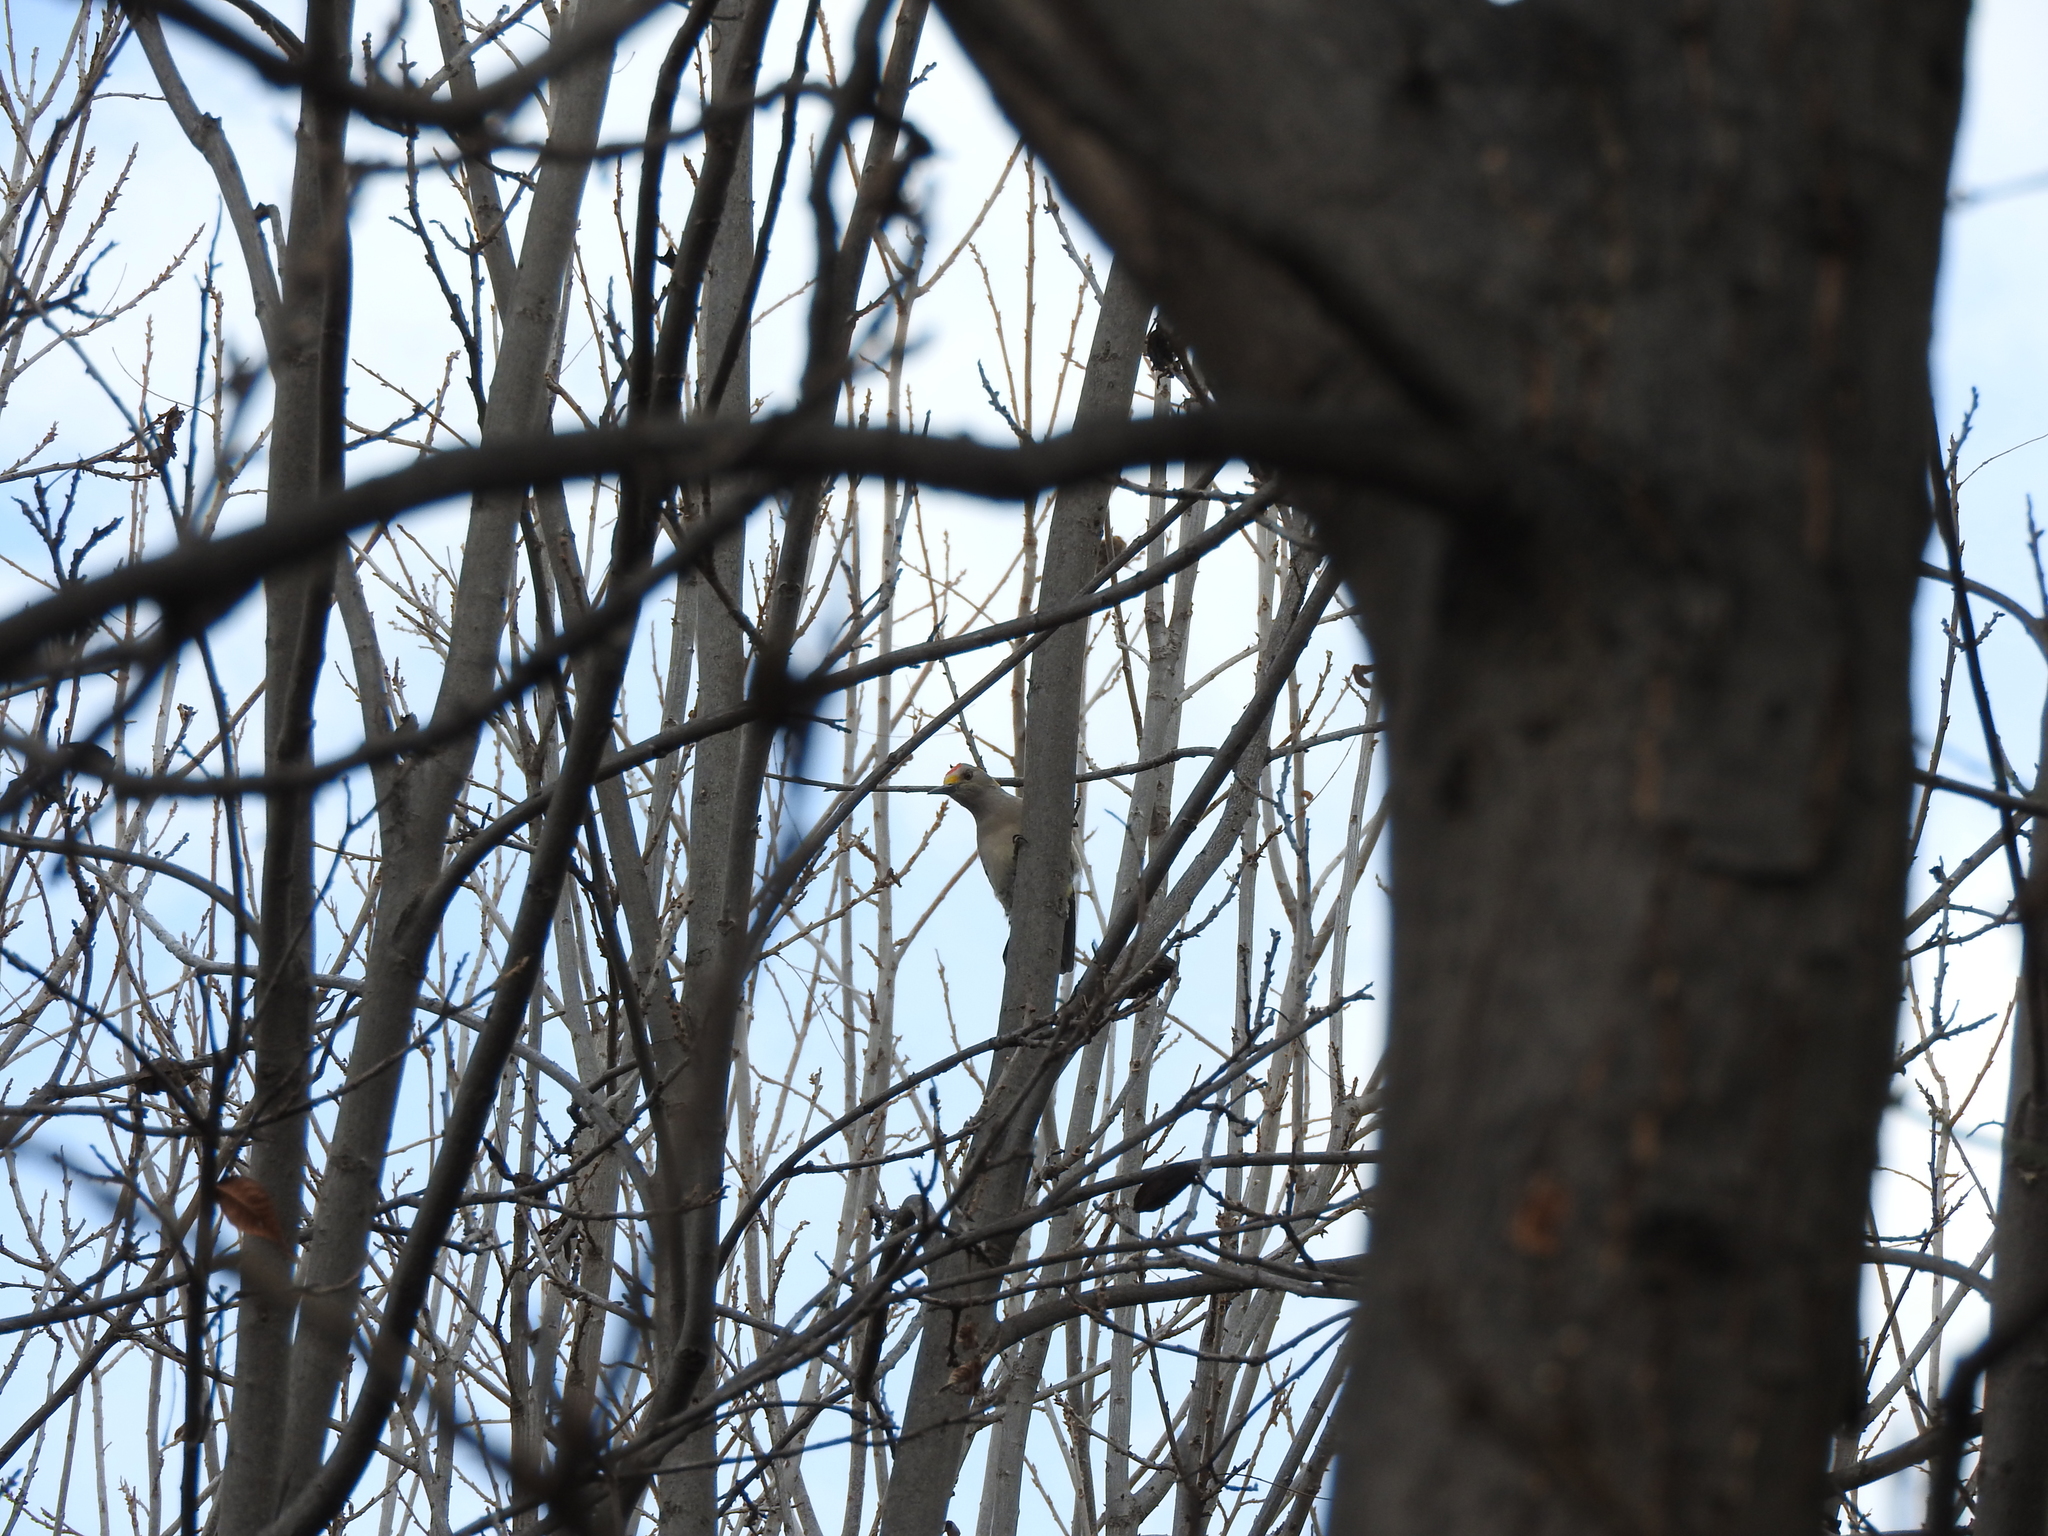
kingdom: Animalia
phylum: Chordata
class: Aves
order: Piciformes
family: Picidae
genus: Melanerpes
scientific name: Melanerpes aurifrons
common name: Golden-fronted woodpecker
